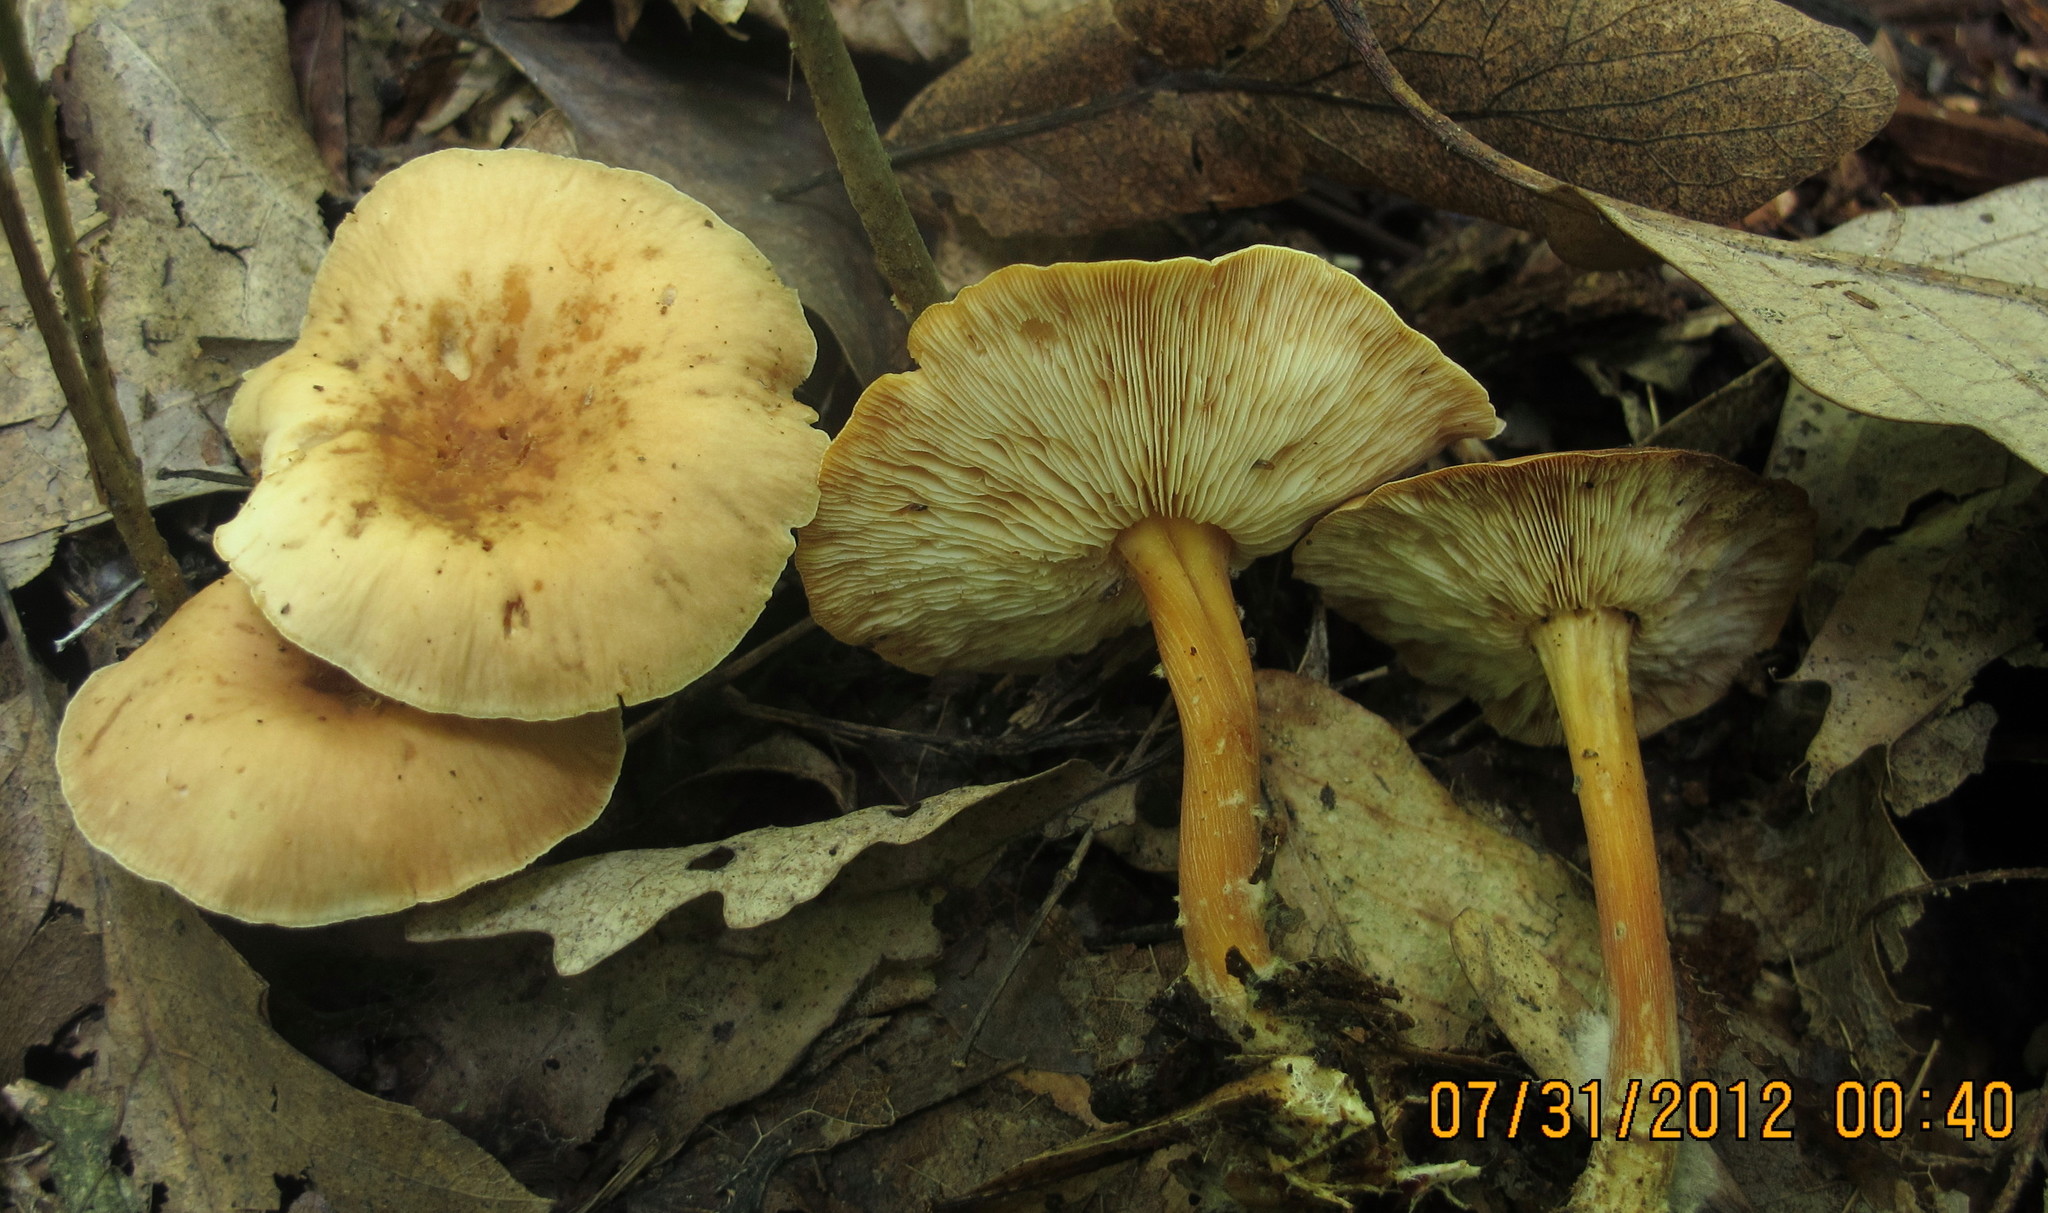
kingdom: Fungi
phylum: Basidiomycota
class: Agaricomycetes
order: Agaricales
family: Omphalotaceae
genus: Gymnopus
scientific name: Gymnopus dryophilus
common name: Penny top
